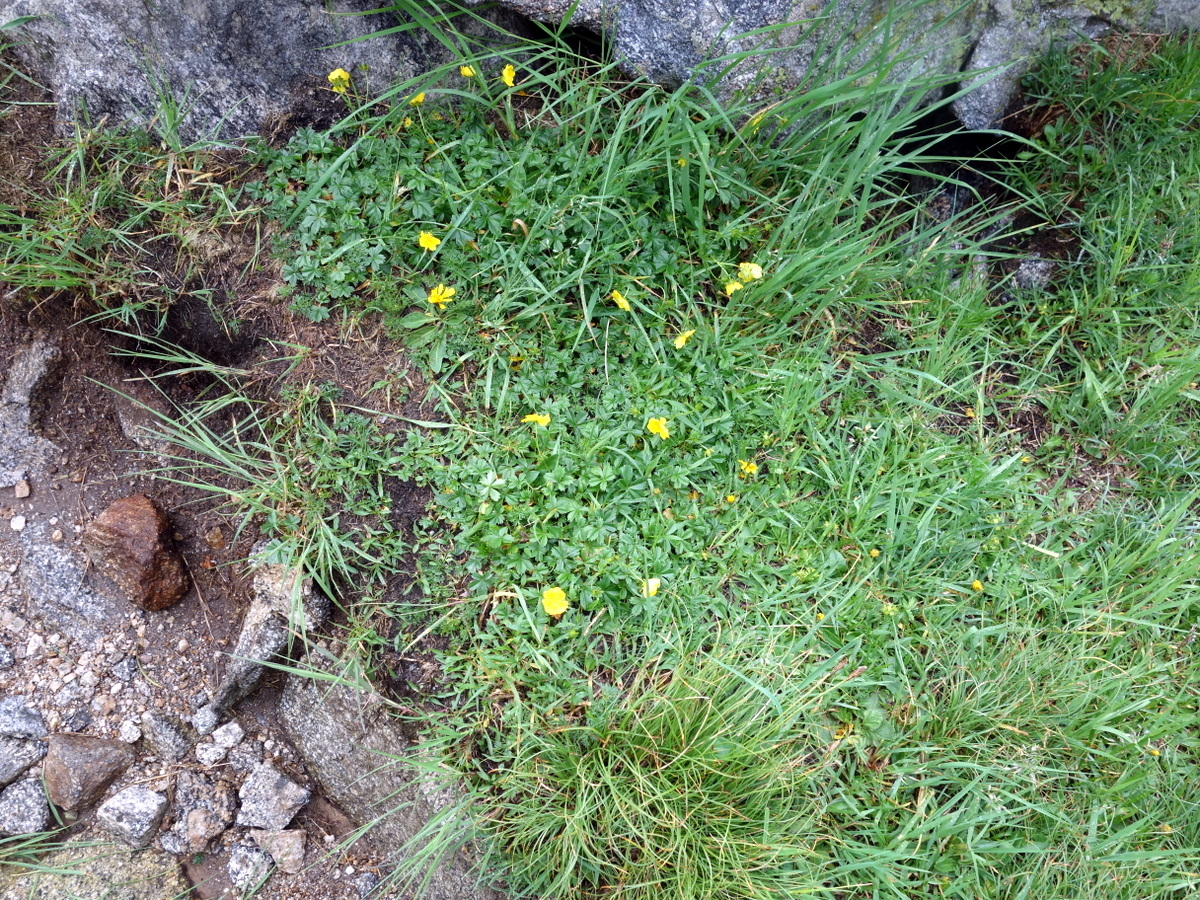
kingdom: Plantae
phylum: Tracheophyta
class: Magnoliopsida
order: Rosales
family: Rosaceae
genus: Potentilla
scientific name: Potentilla aurea
